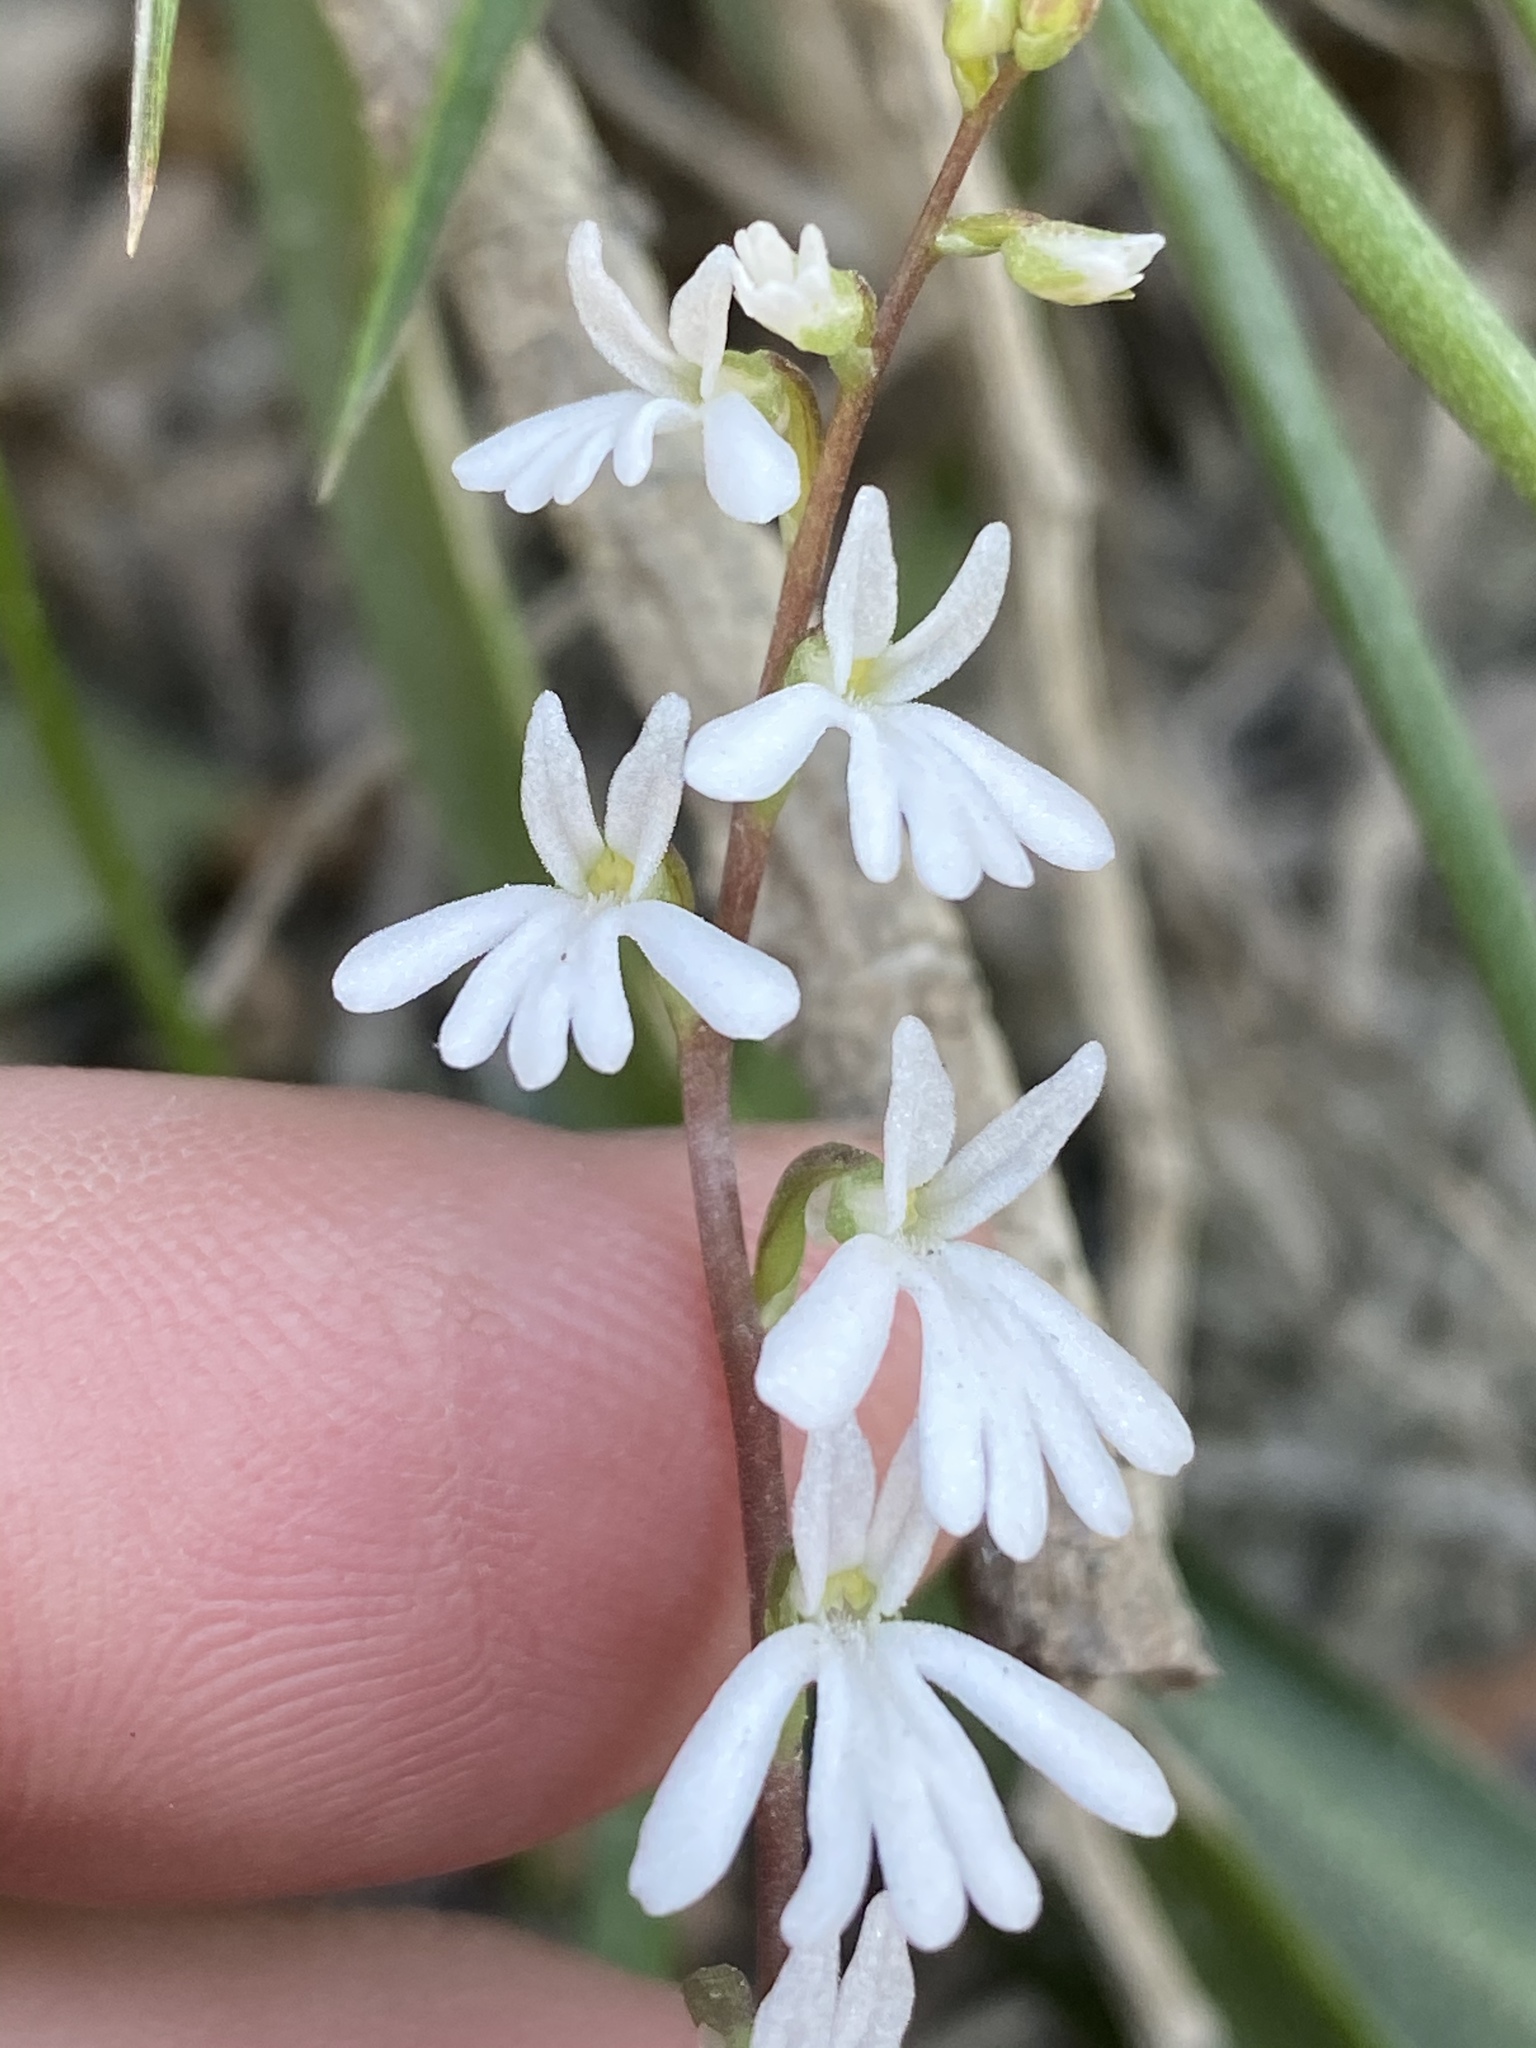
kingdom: Plantae
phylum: Tracheophyta
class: Liliopsida
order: Asparagales
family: Orchidaceae
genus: Holothrix
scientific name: Holothrix parviflora
